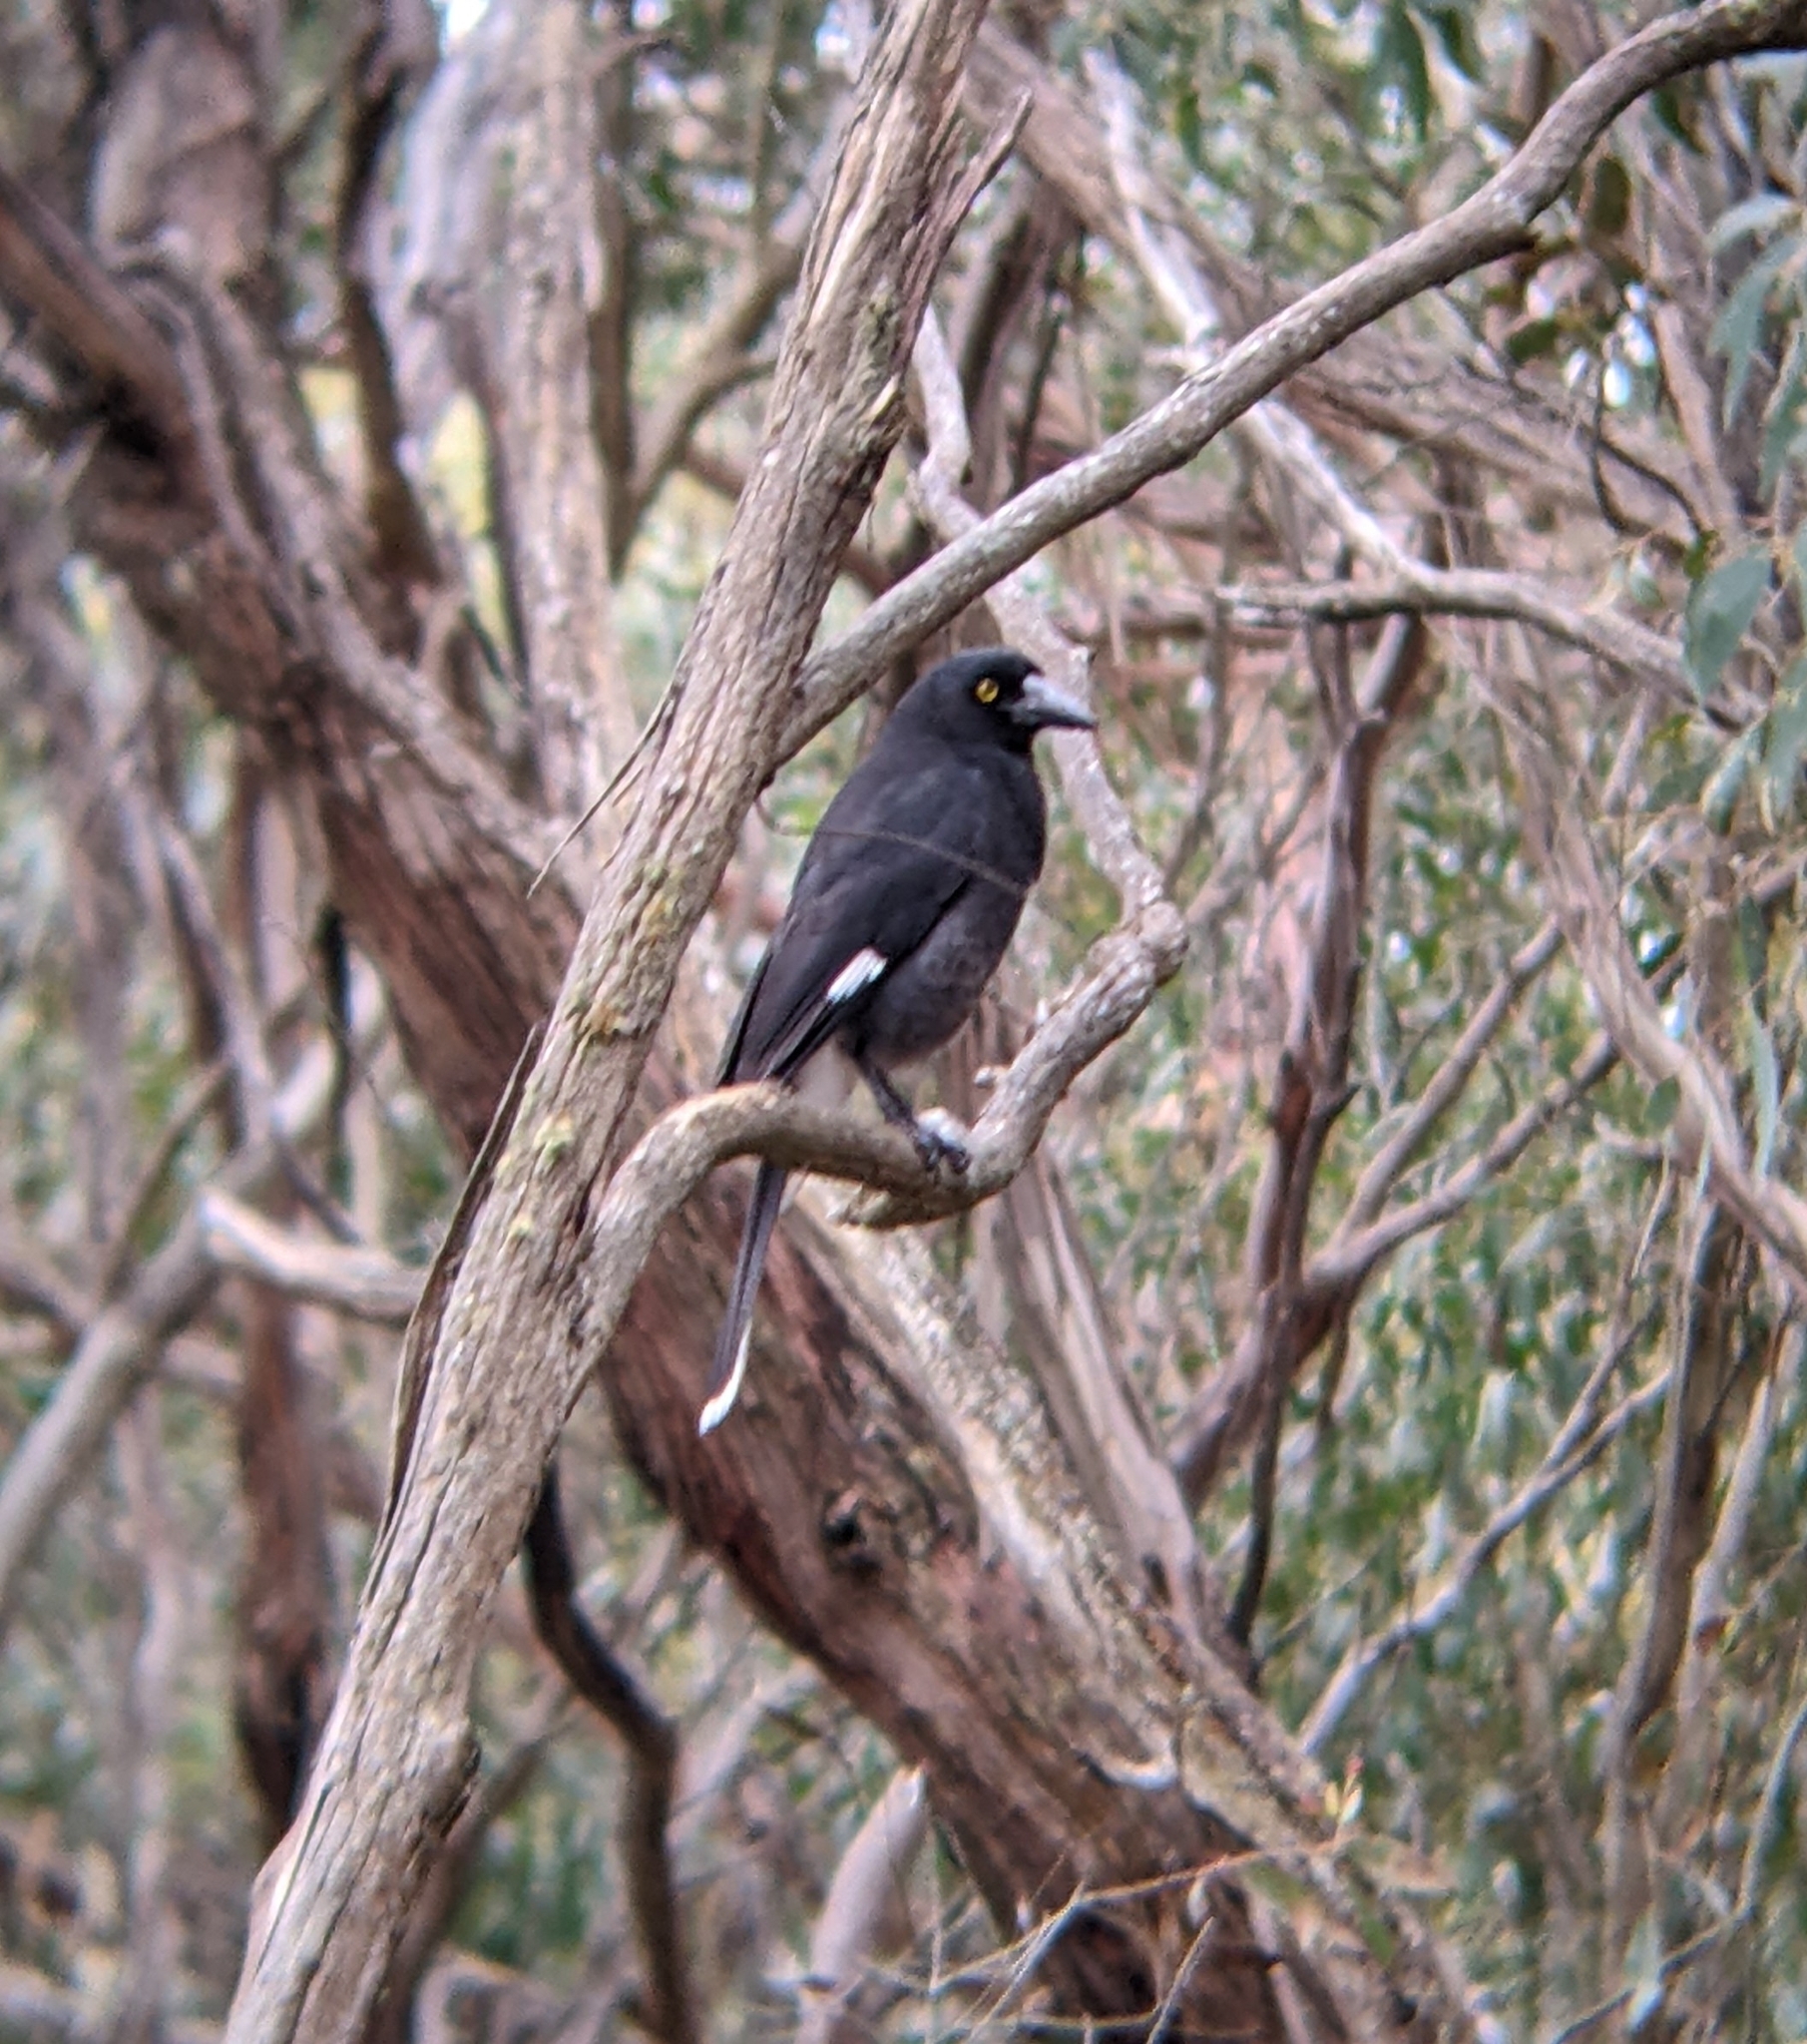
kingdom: Animalia
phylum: Chordata
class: Aves
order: Passeriformes
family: Cracticidae
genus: Strepera
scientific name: Strepera graculina
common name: Pied currawong
